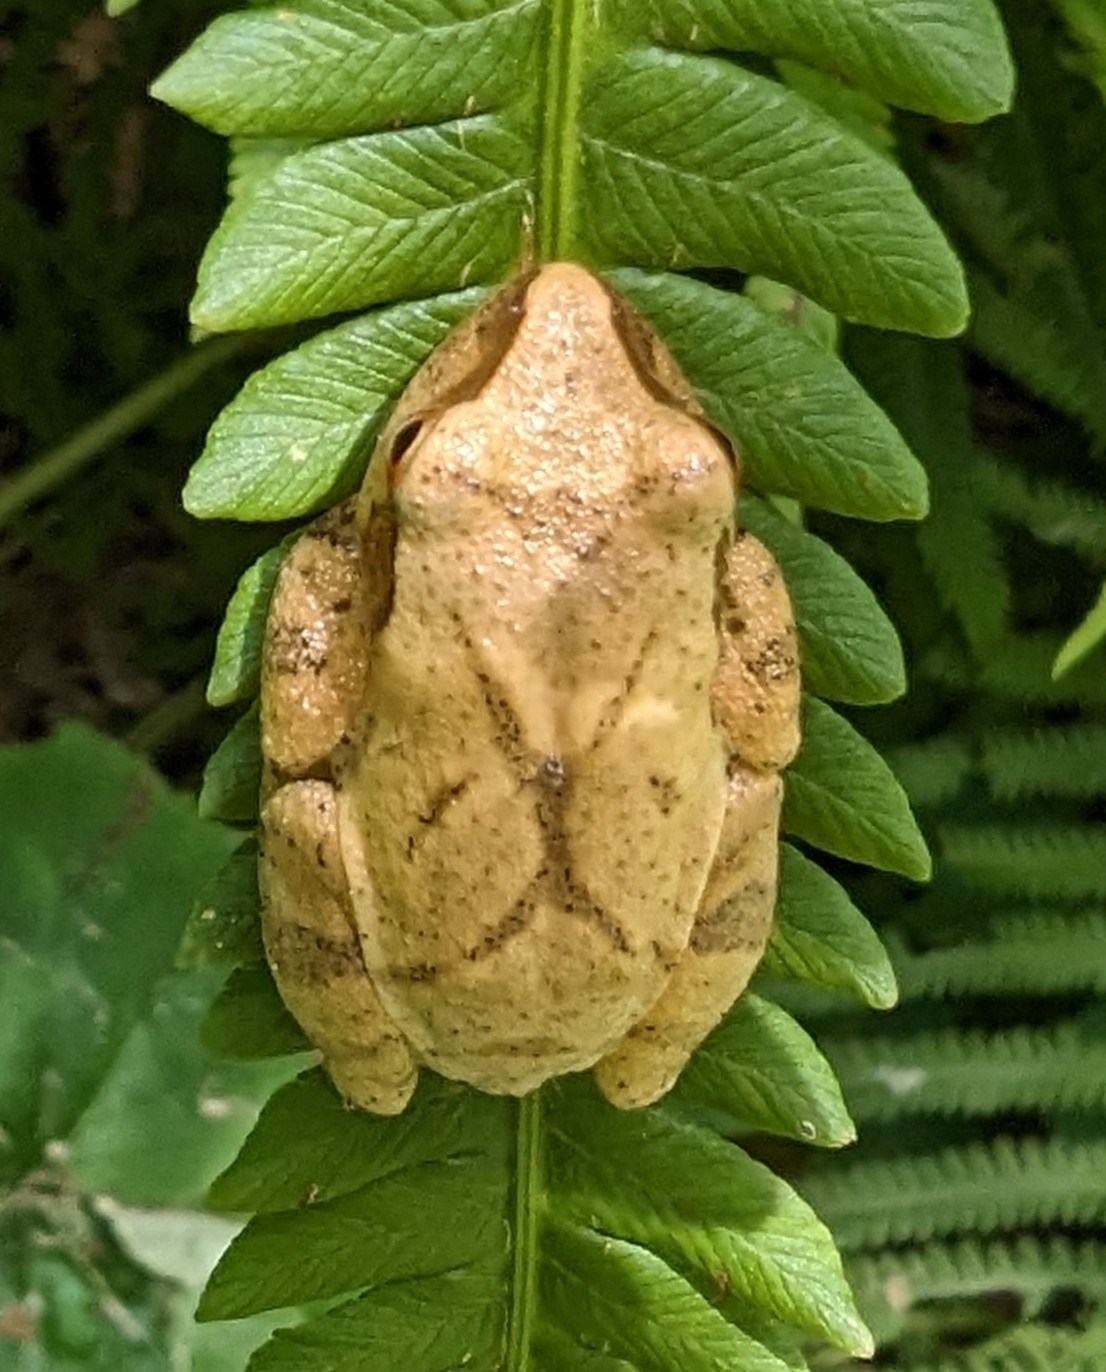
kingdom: Animalia
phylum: Chordata
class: Amphibia
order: Anura
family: Hylidae
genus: Pseudacris
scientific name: Pseudacris crucifer
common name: Spring peeper
